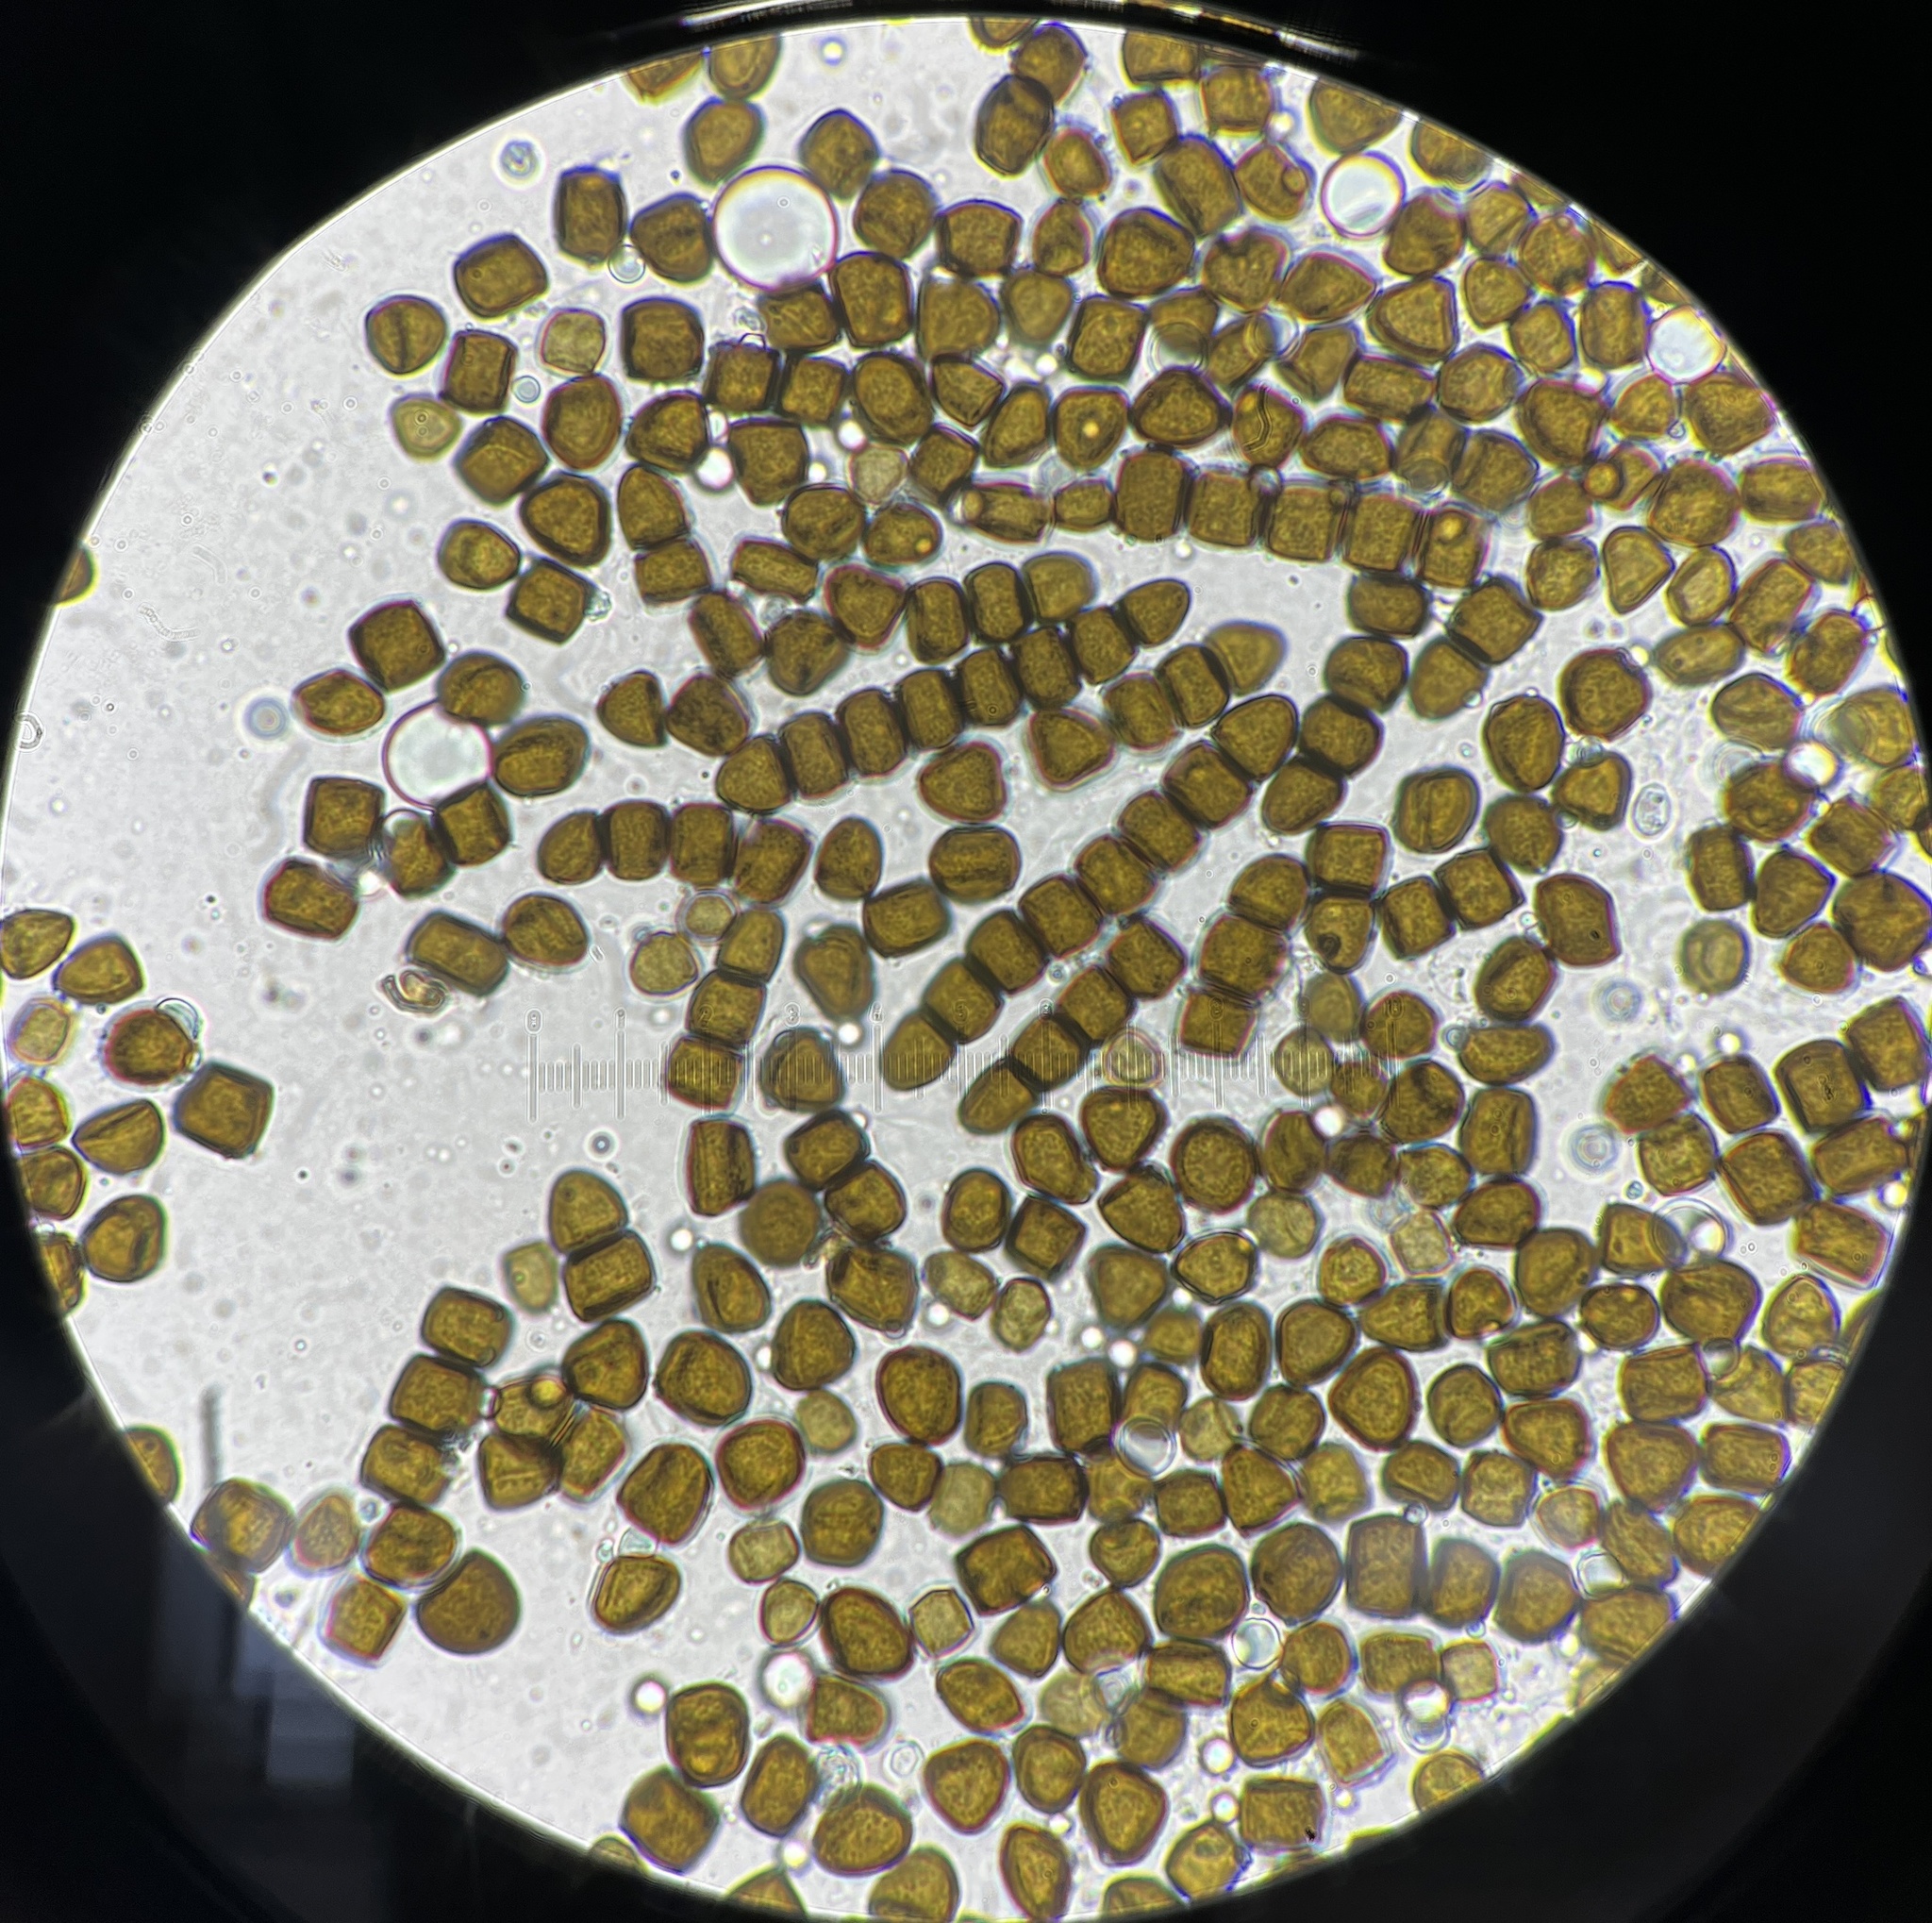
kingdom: Fungi
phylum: Ascomycota
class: Dothideomycetes
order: Pleosporales
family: Sporormiaceae
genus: Sporormia
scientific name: Sporormia subticinensis
